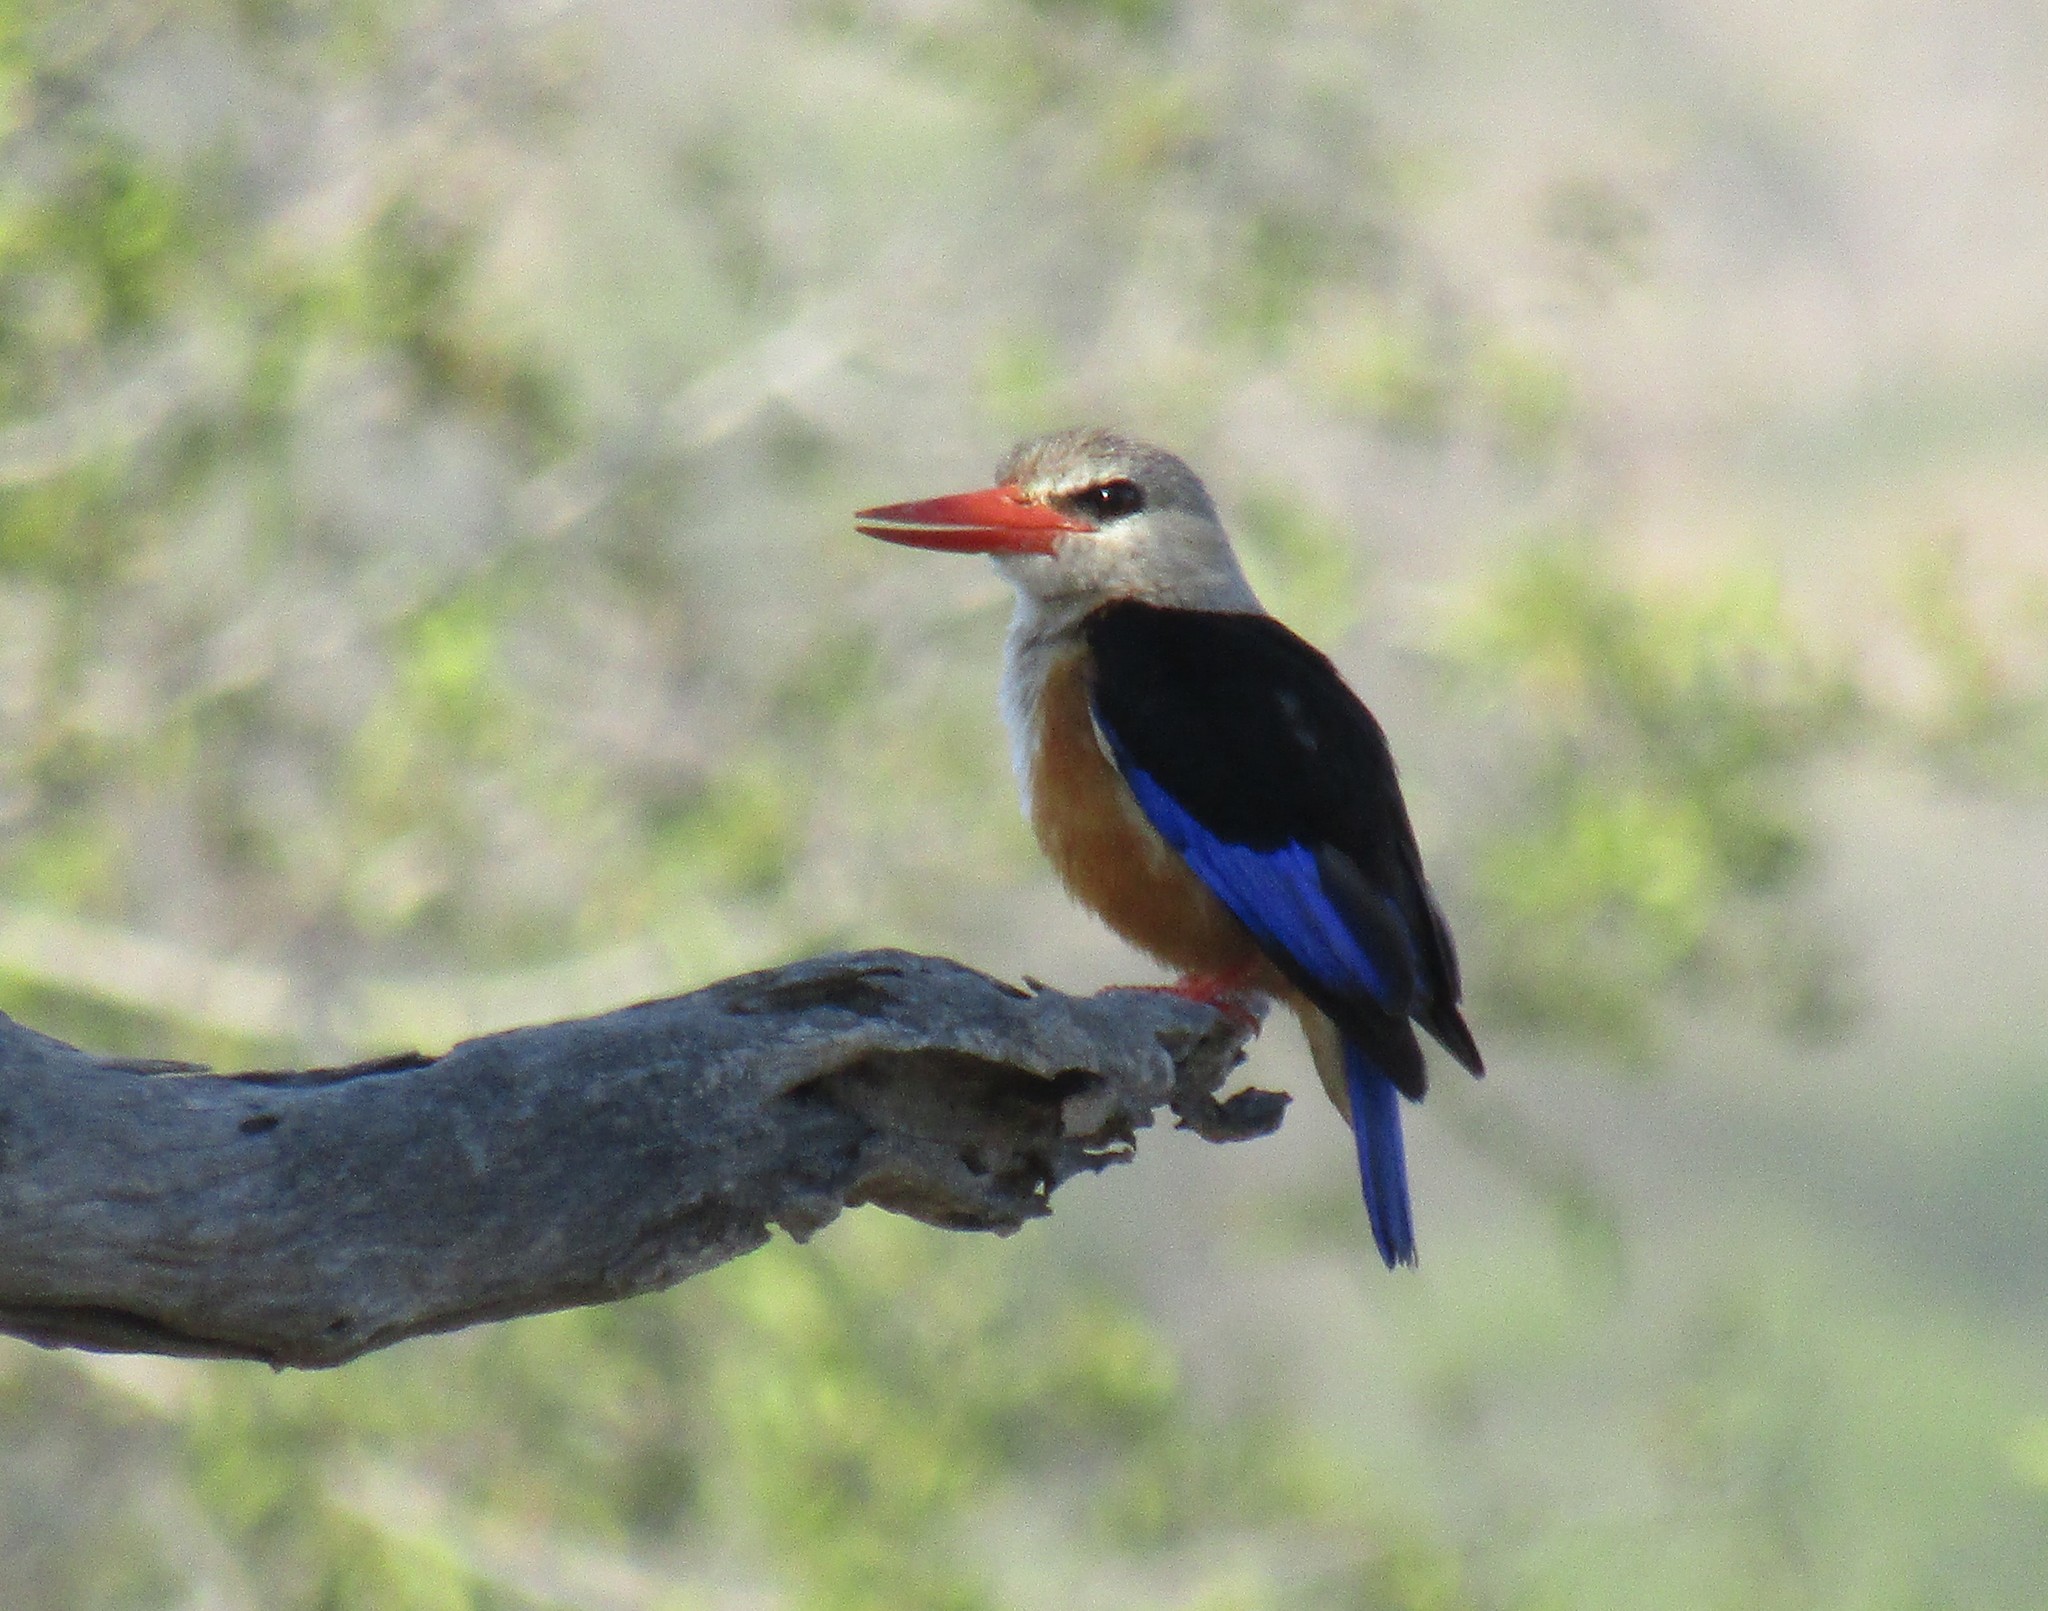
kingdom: Animalia
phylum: Chordata
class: Aves
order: Coraciiformes
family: Alcedinidae
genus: Halcyon
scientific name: Halcyon leucocephala
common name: Grey-headed kingfisher
